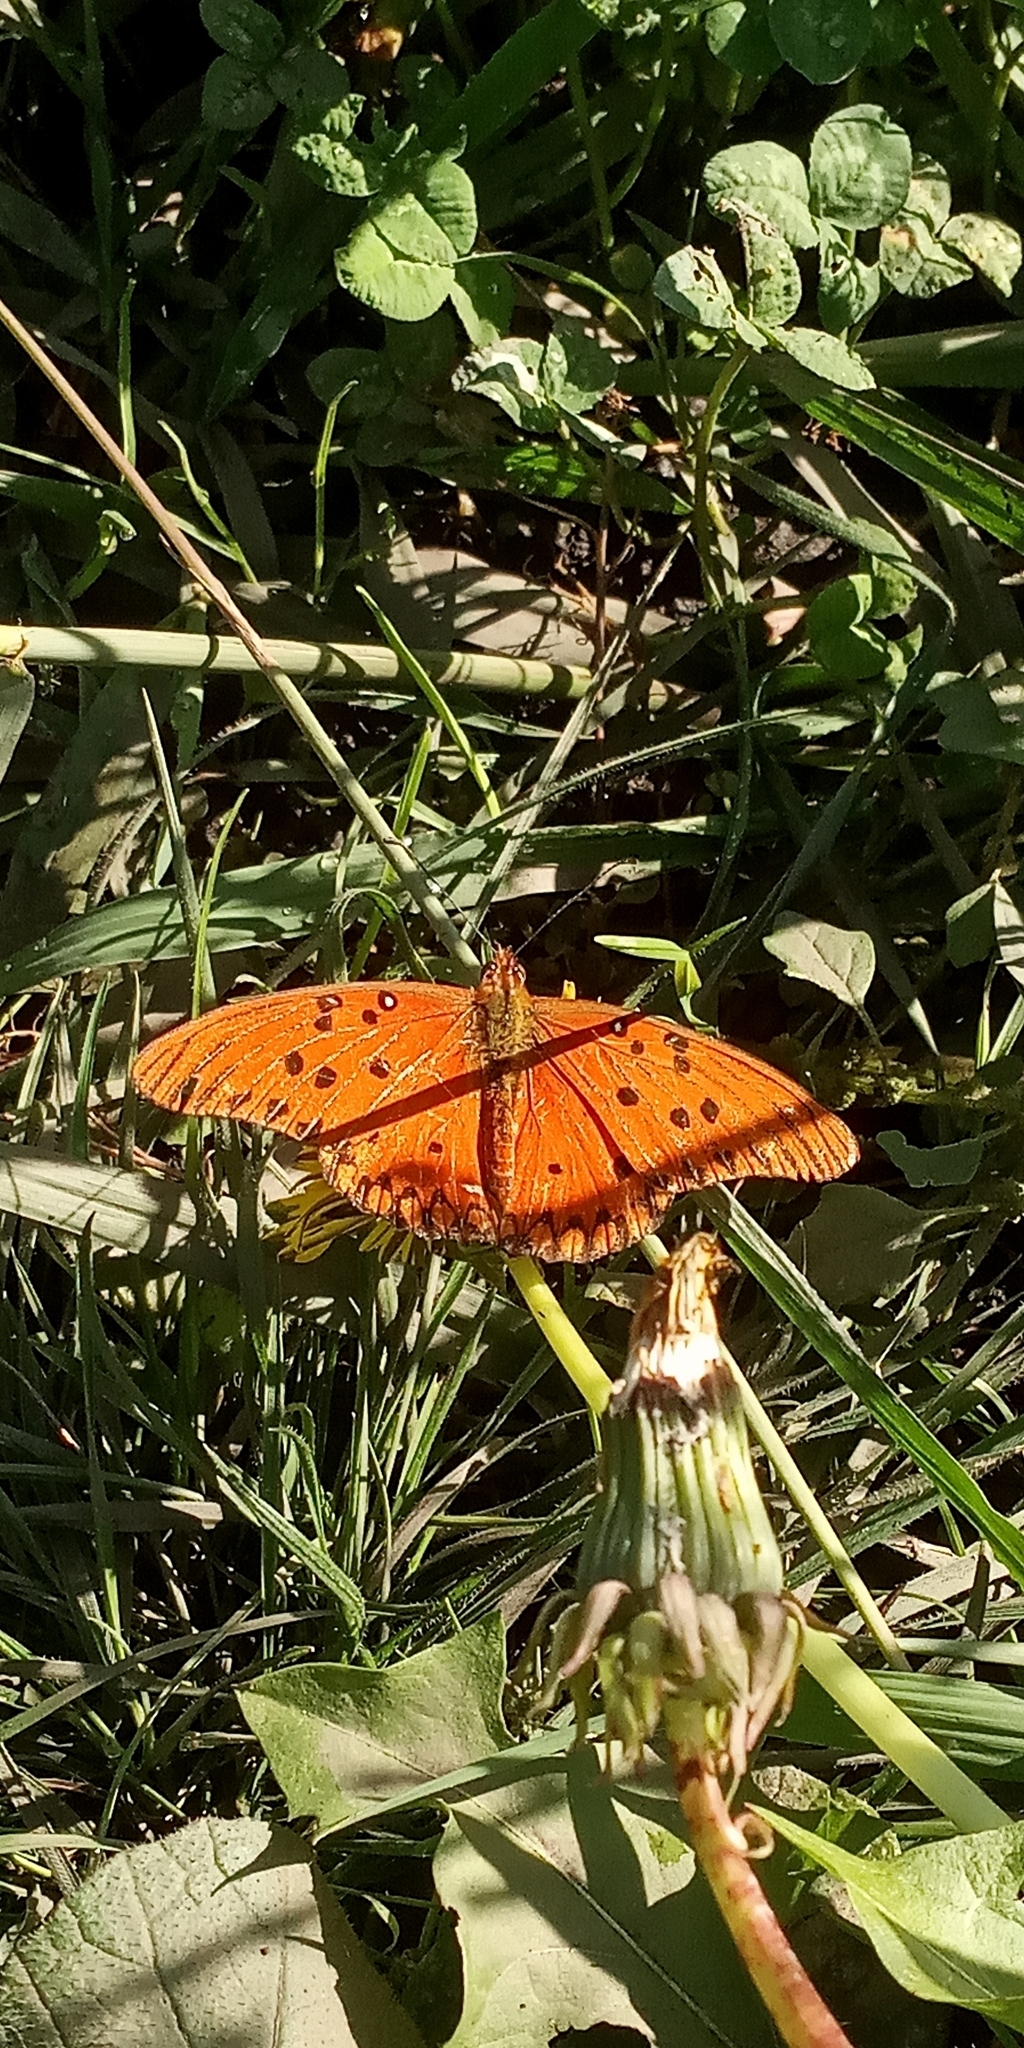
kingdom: Animalia
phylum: Arthropoda
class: Insecta
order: Lepidoptera
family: Nymphalidae
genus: Dione
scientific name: Dione vanillae
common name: Gulf fritillary
